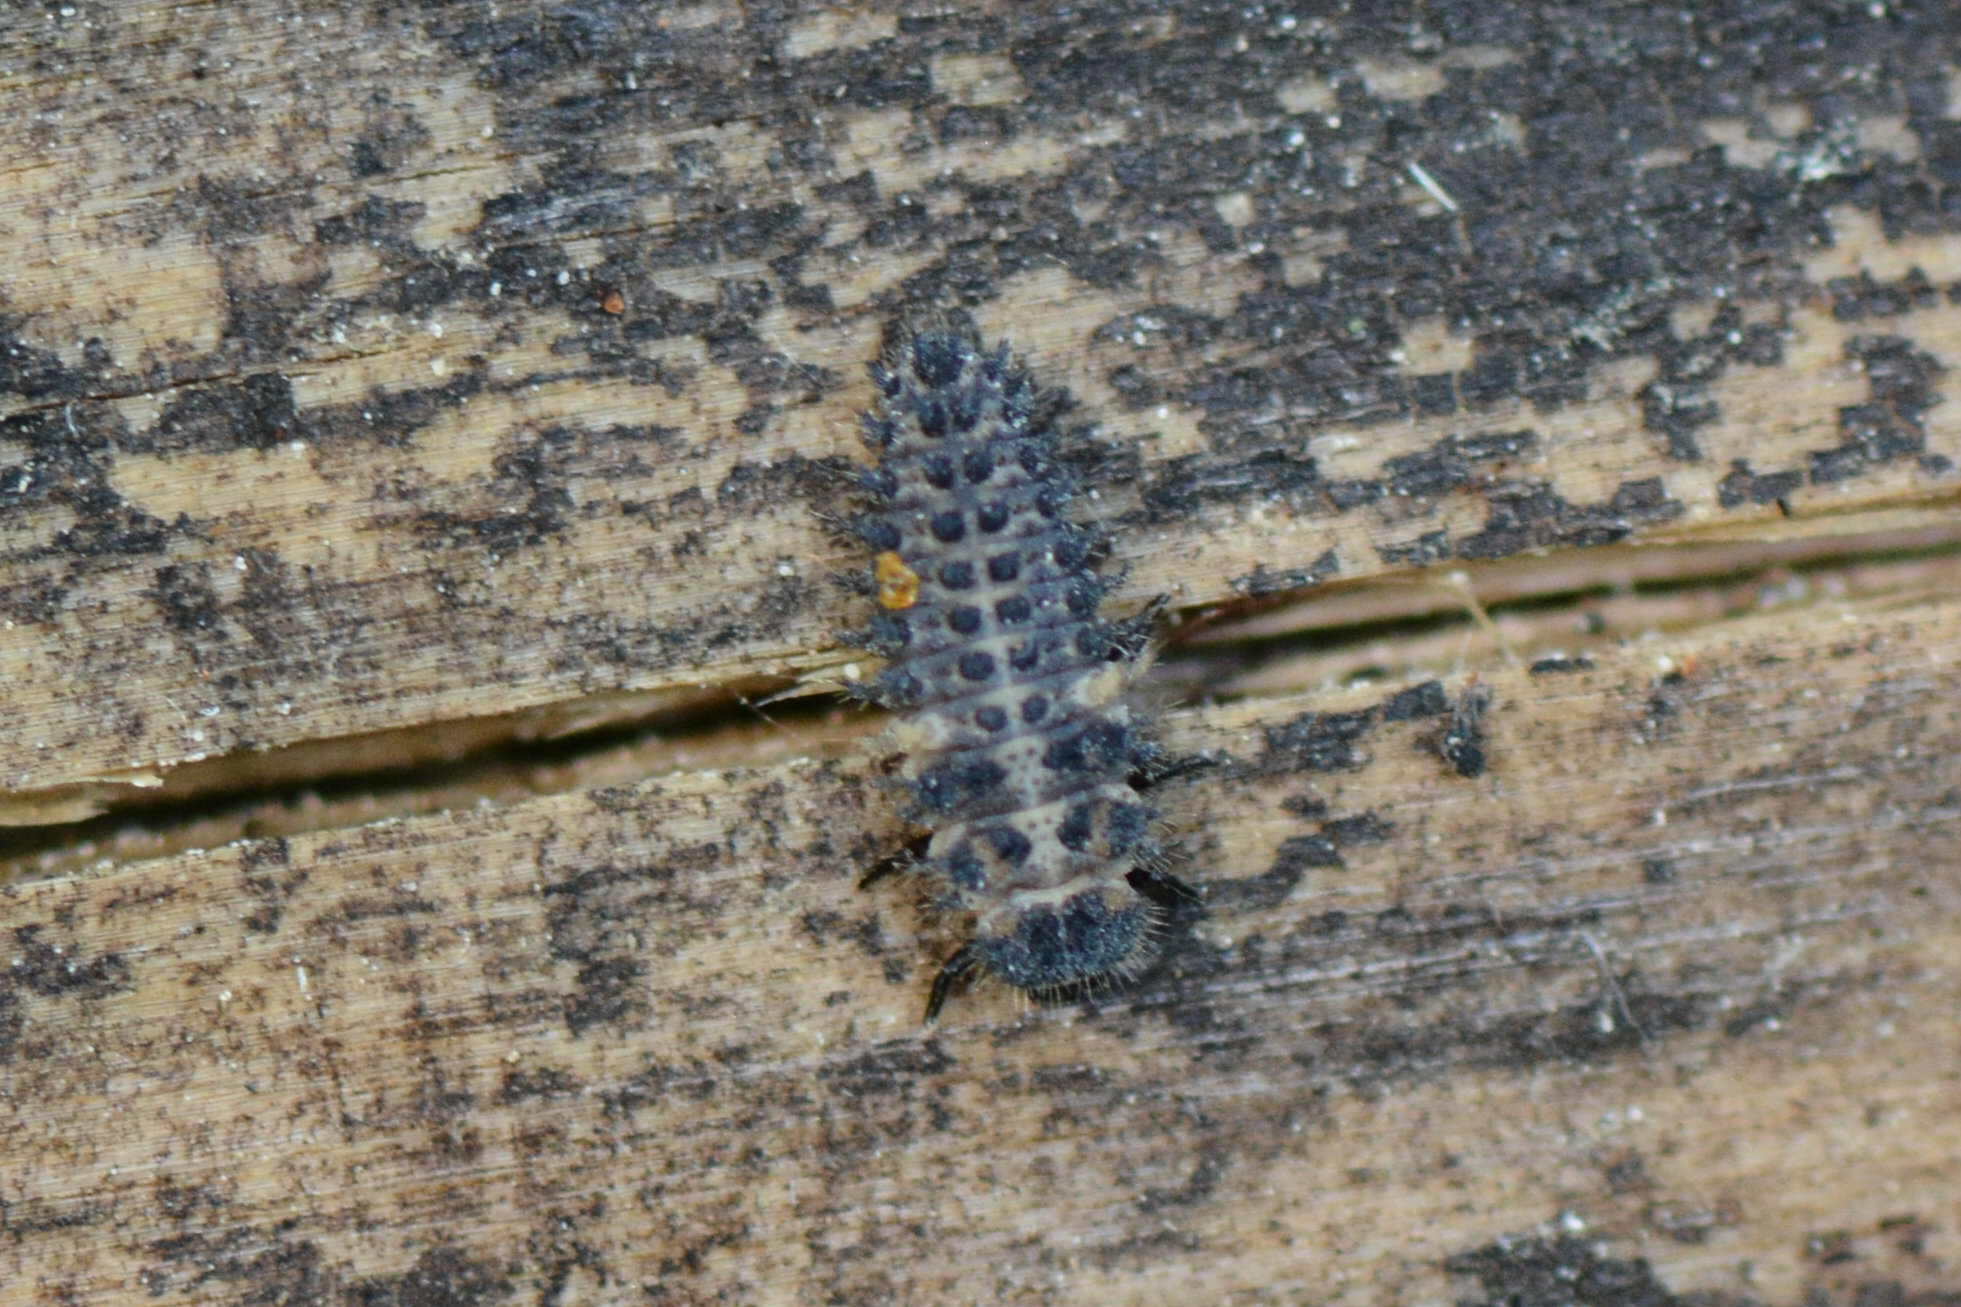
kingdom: Animalia
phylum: Arthropoda
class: Insecta
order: Coleoptera
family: Coccinellidae
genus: Brumus
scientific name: Brumus quadripustulatus
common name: Ladybird beetle
